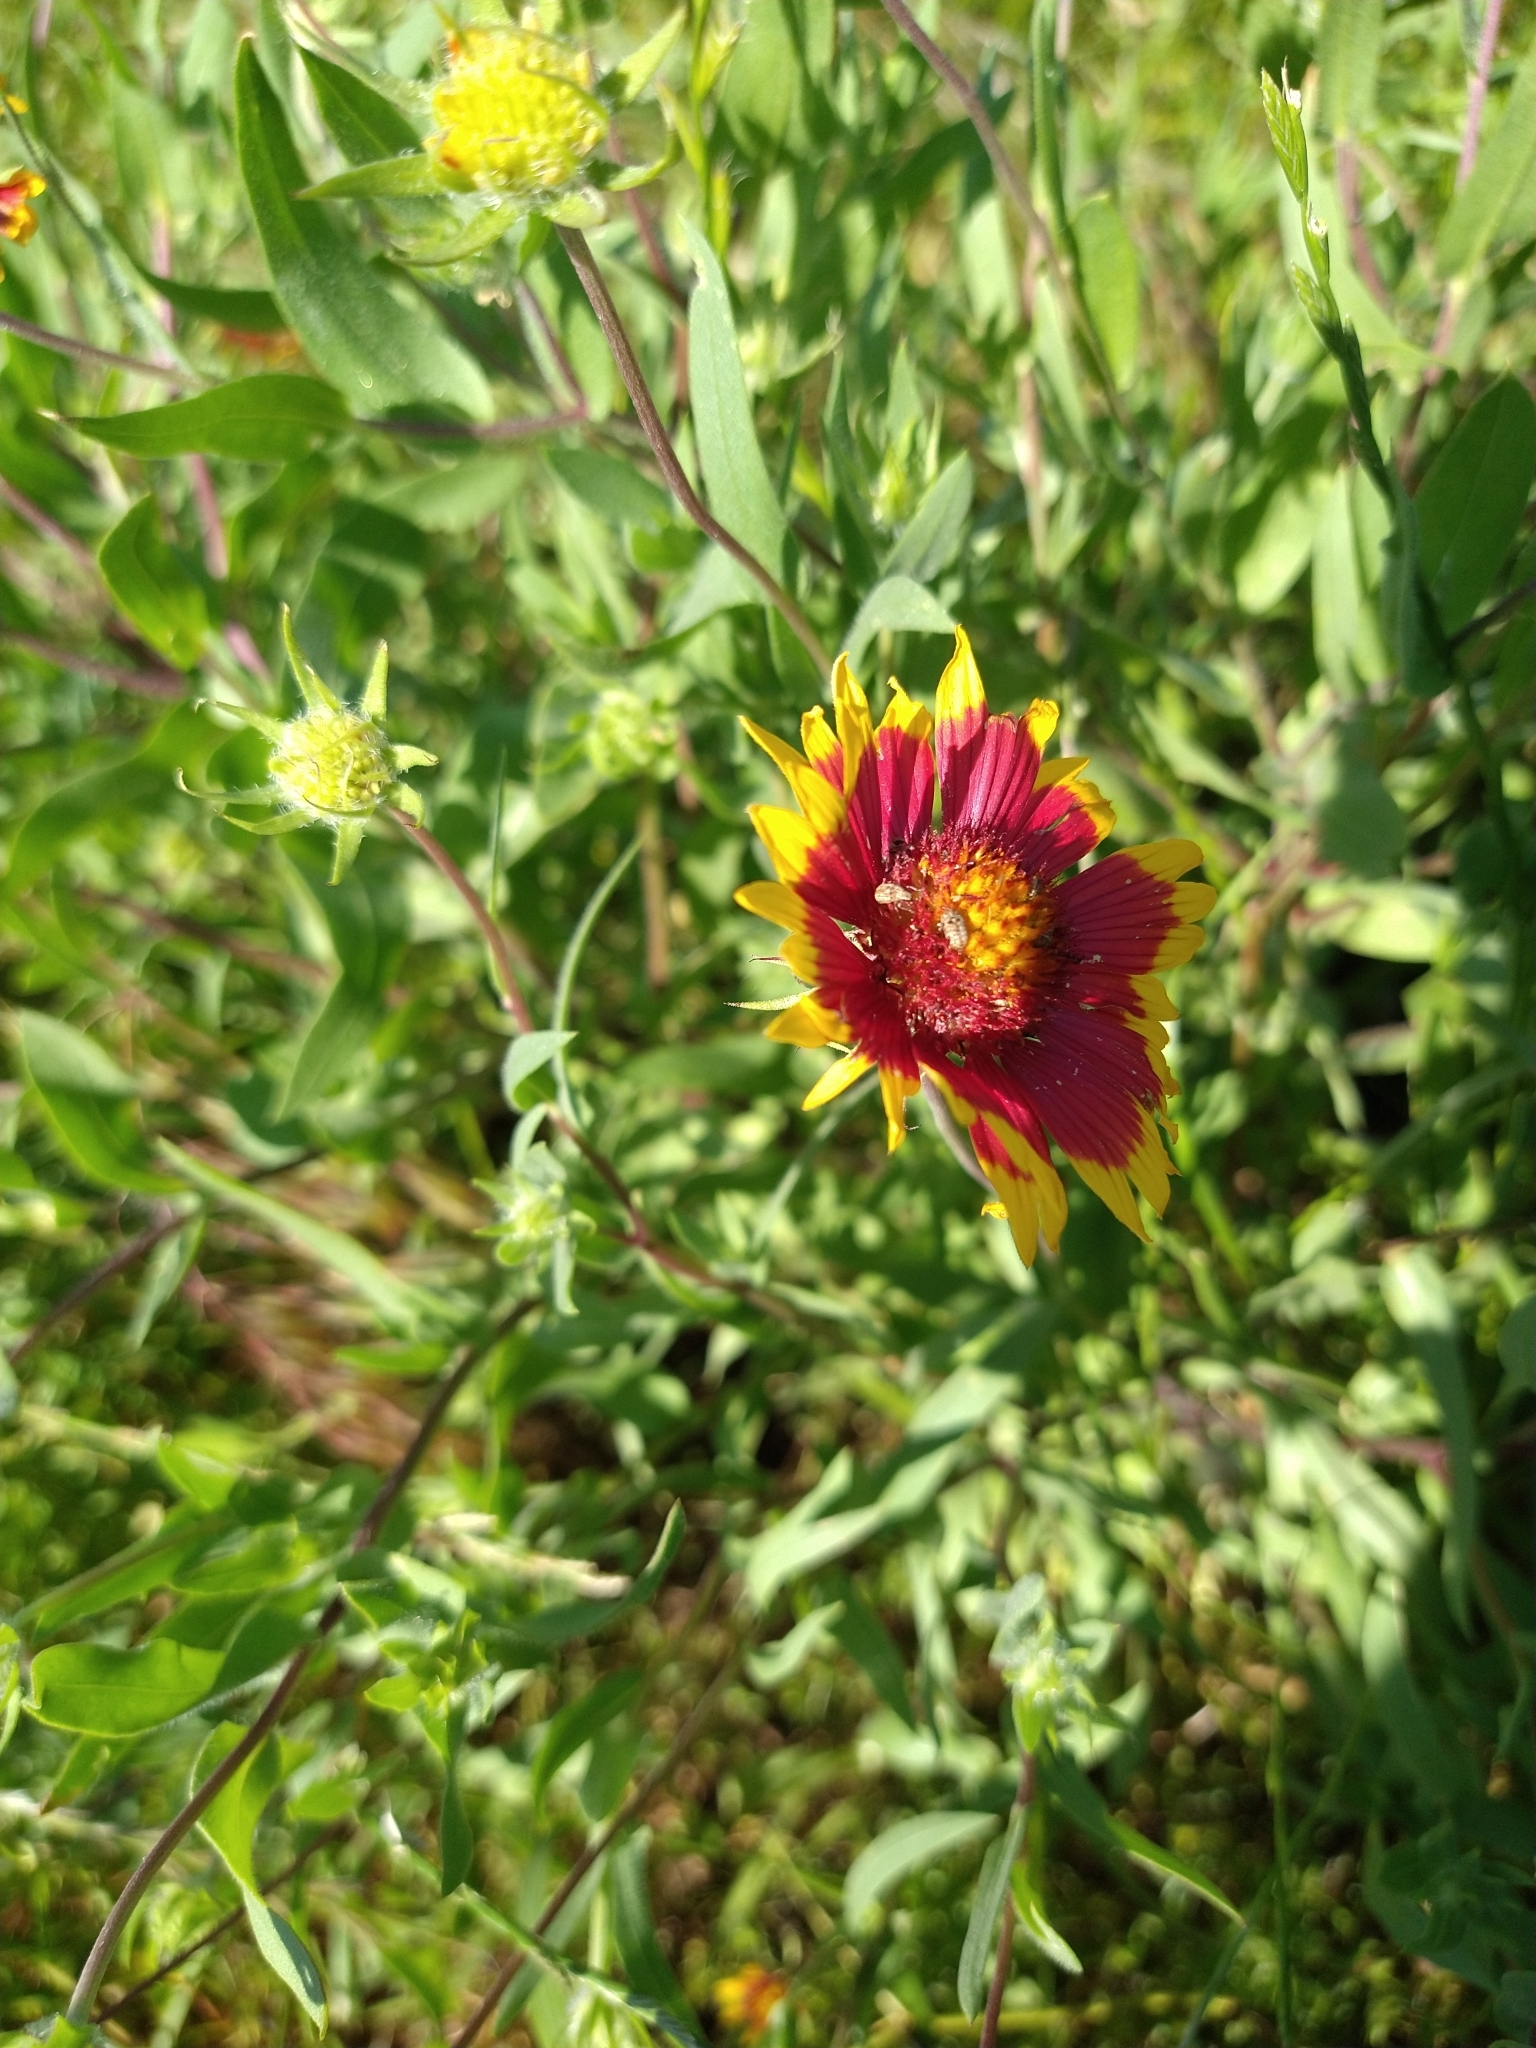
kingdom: Plantae
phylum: Tracheophyta
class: Magnoliopsida
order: Asterales
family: Asteraceae
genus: Gaillardia
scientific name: Gaillardia pulchella
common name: Firewheel
